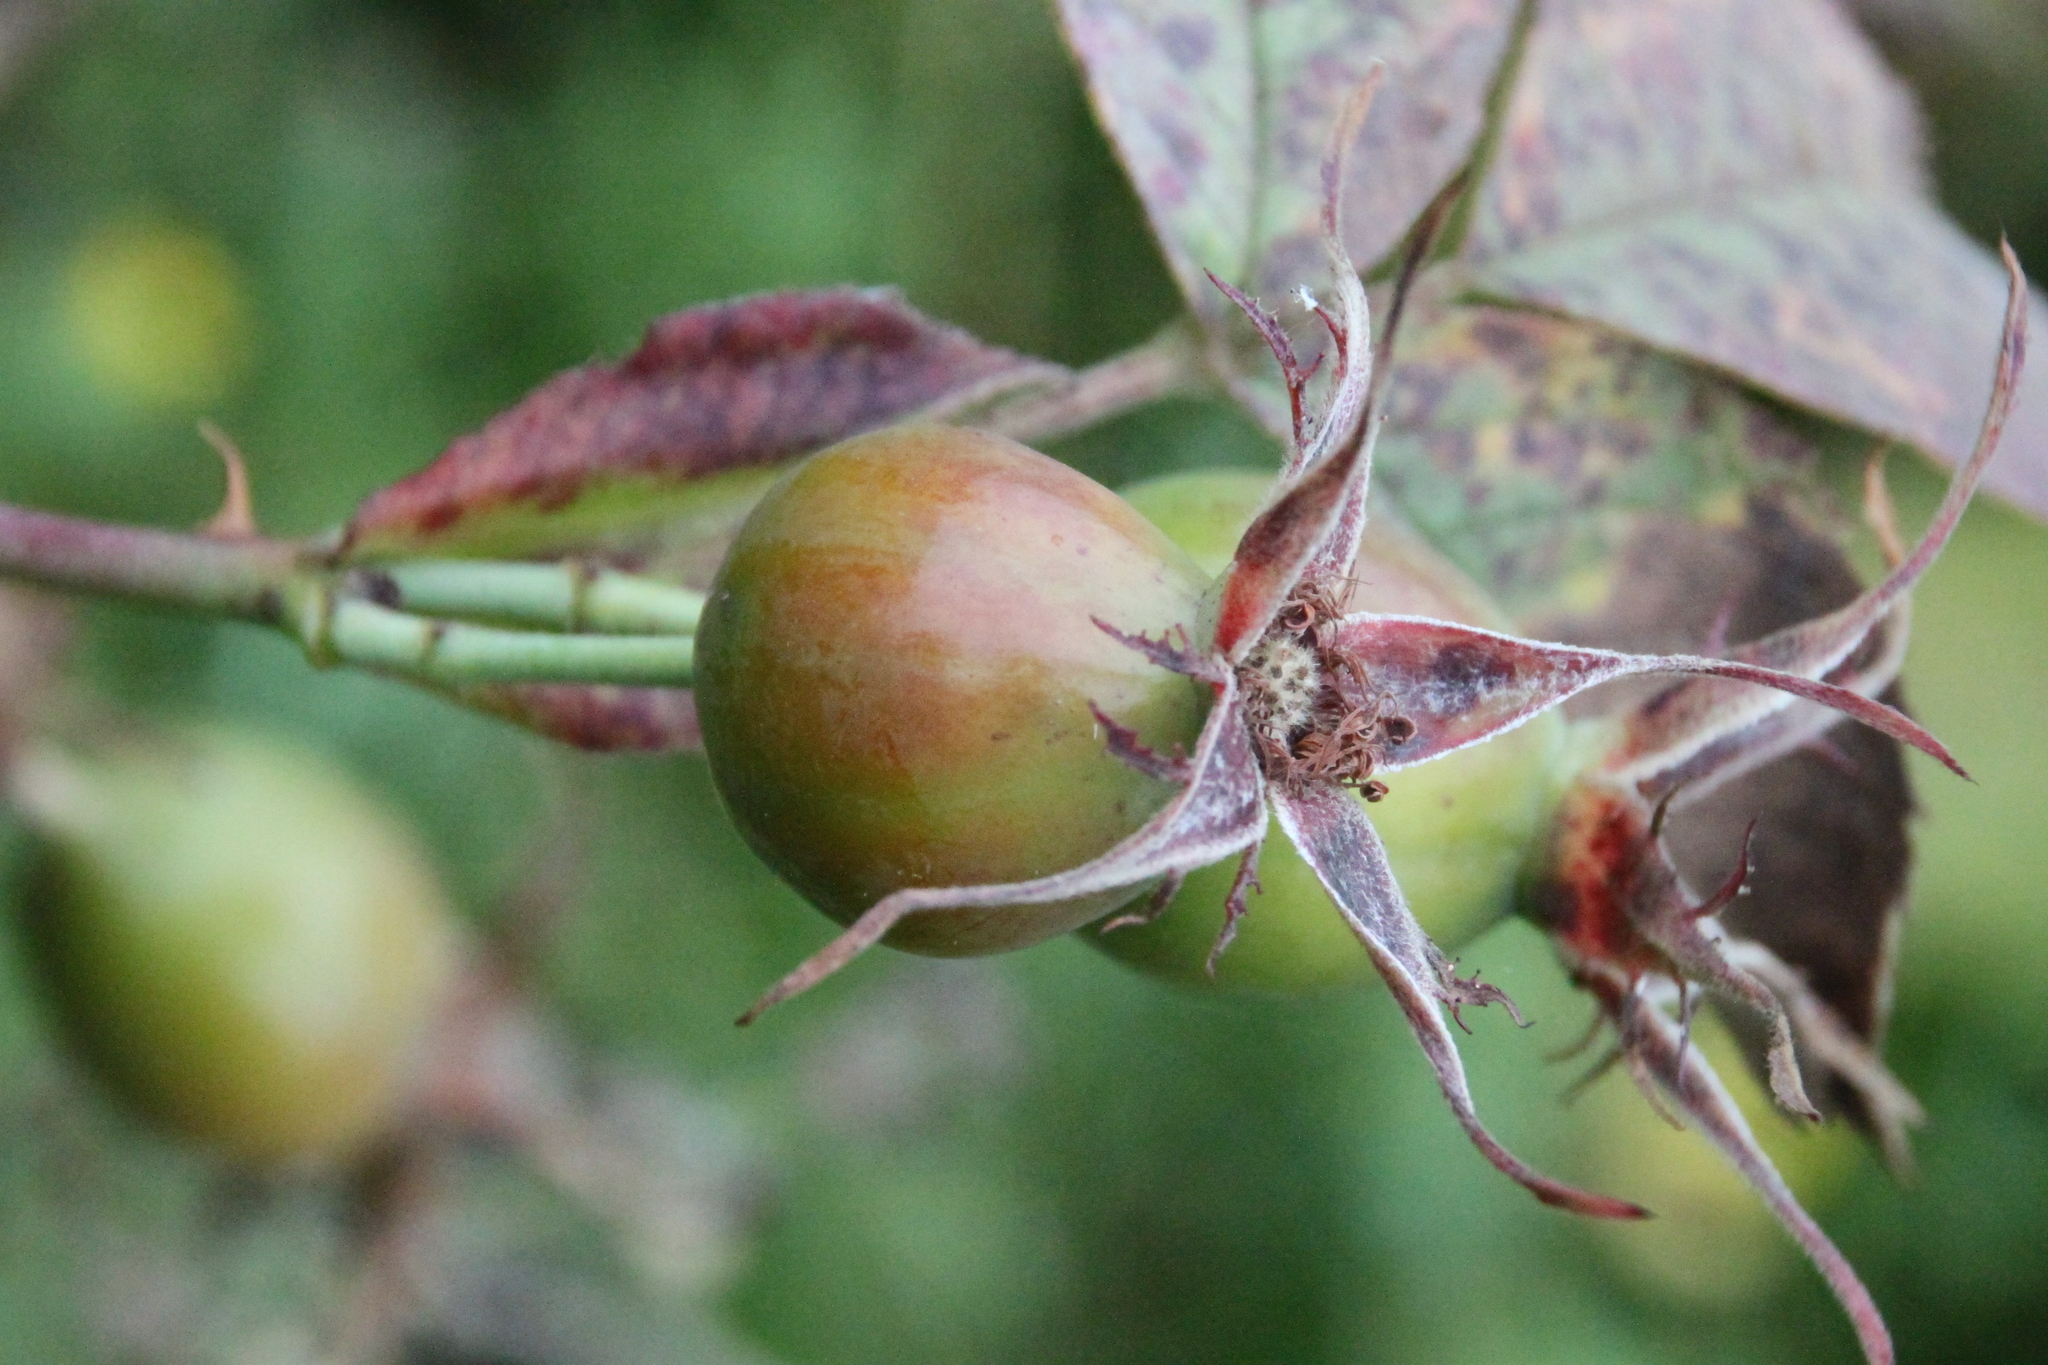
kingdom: Plantae
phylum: Tracheophyta
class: Magnoliopsida
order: Rosales
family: Rosaceae
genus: Rosa
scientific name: Rosa
